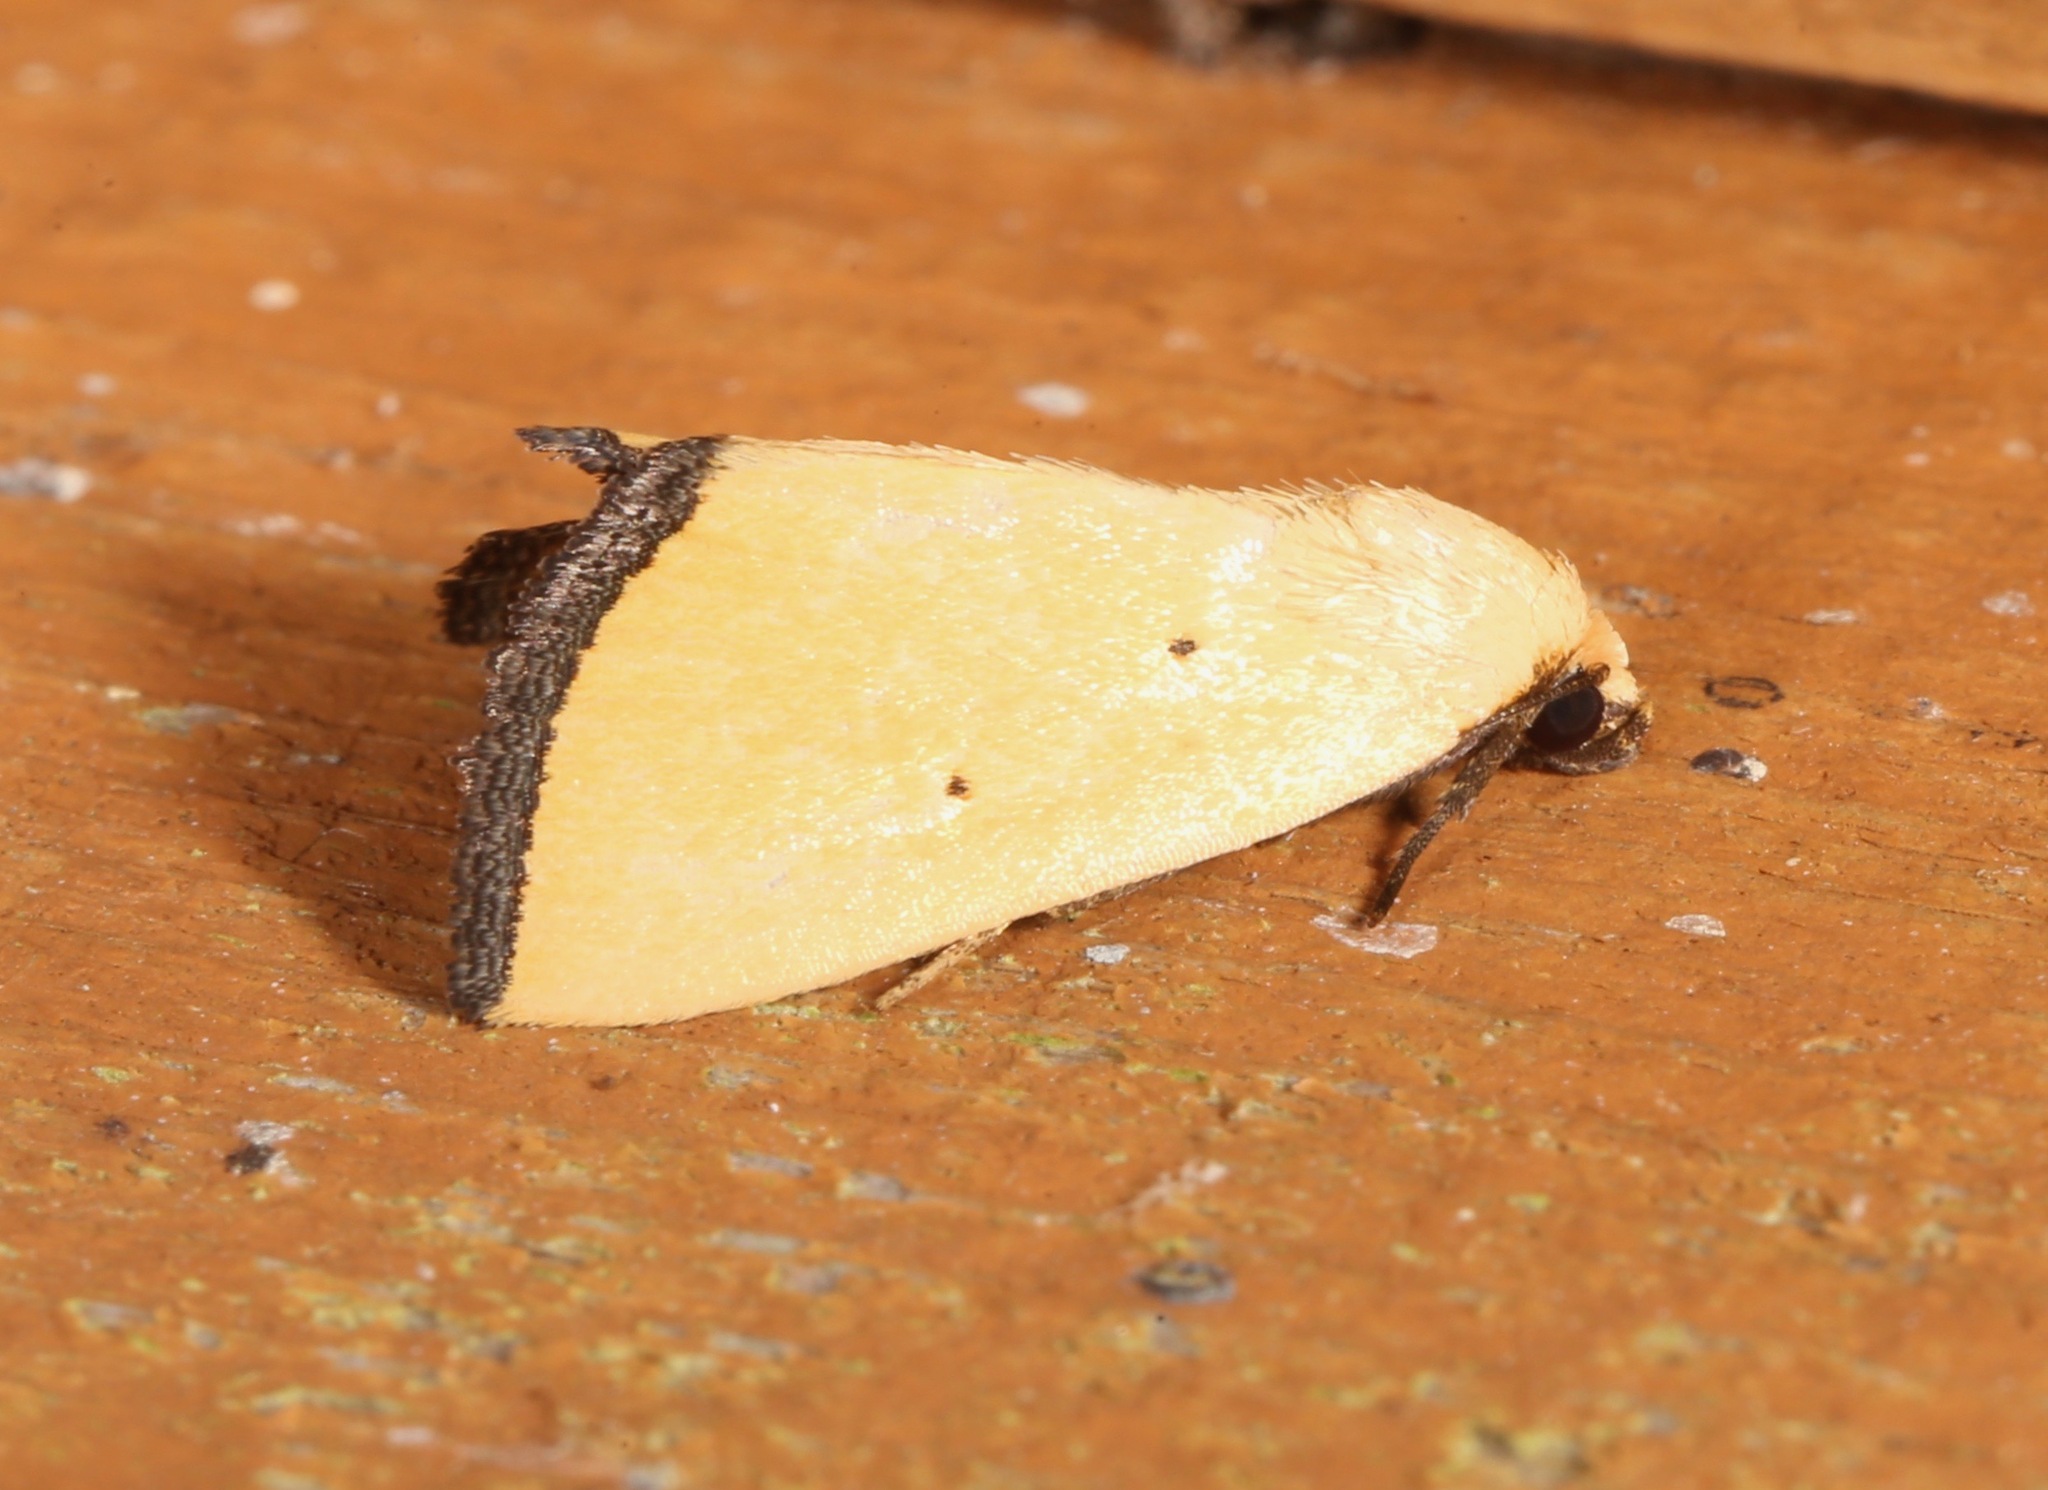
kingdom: Animalia
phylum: Arthropoda
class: Insecta
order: Lepidoptera
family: Noctuidae
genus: Marimatha
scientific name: Marimatha nigrofimbria
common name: Black-bordered lemon moth
